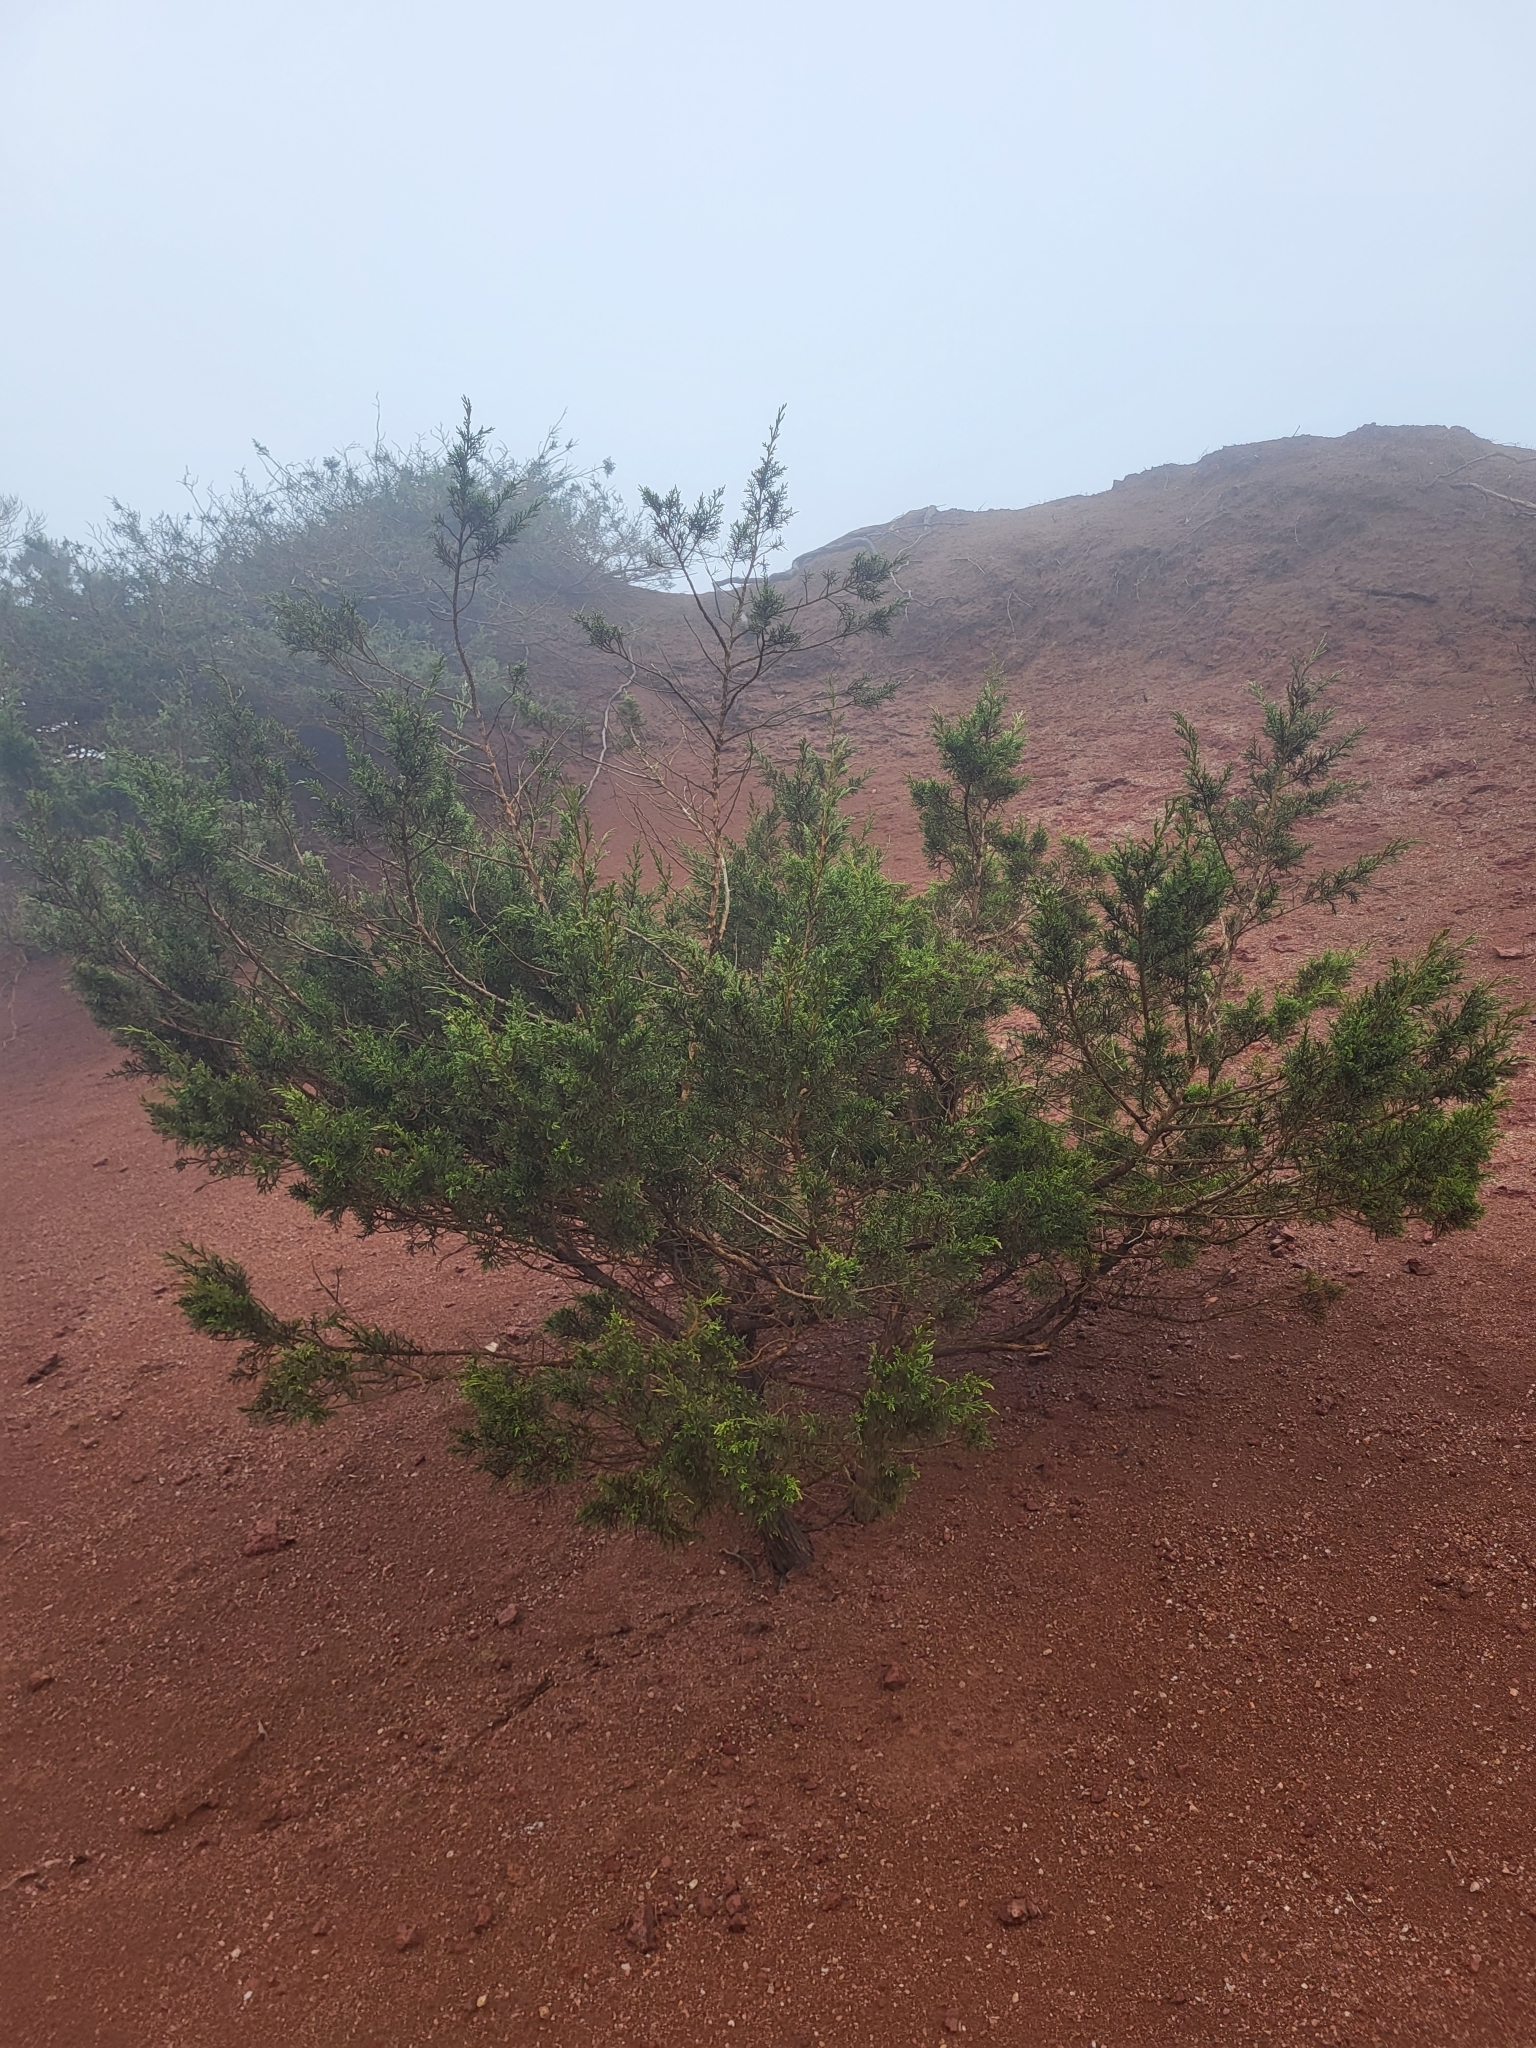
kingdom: Plantae
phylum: Tracheophyta
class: Pinopsida
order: Pinales
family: Cupressaceae
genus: Juniperus
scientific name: Juniperus canariensis
